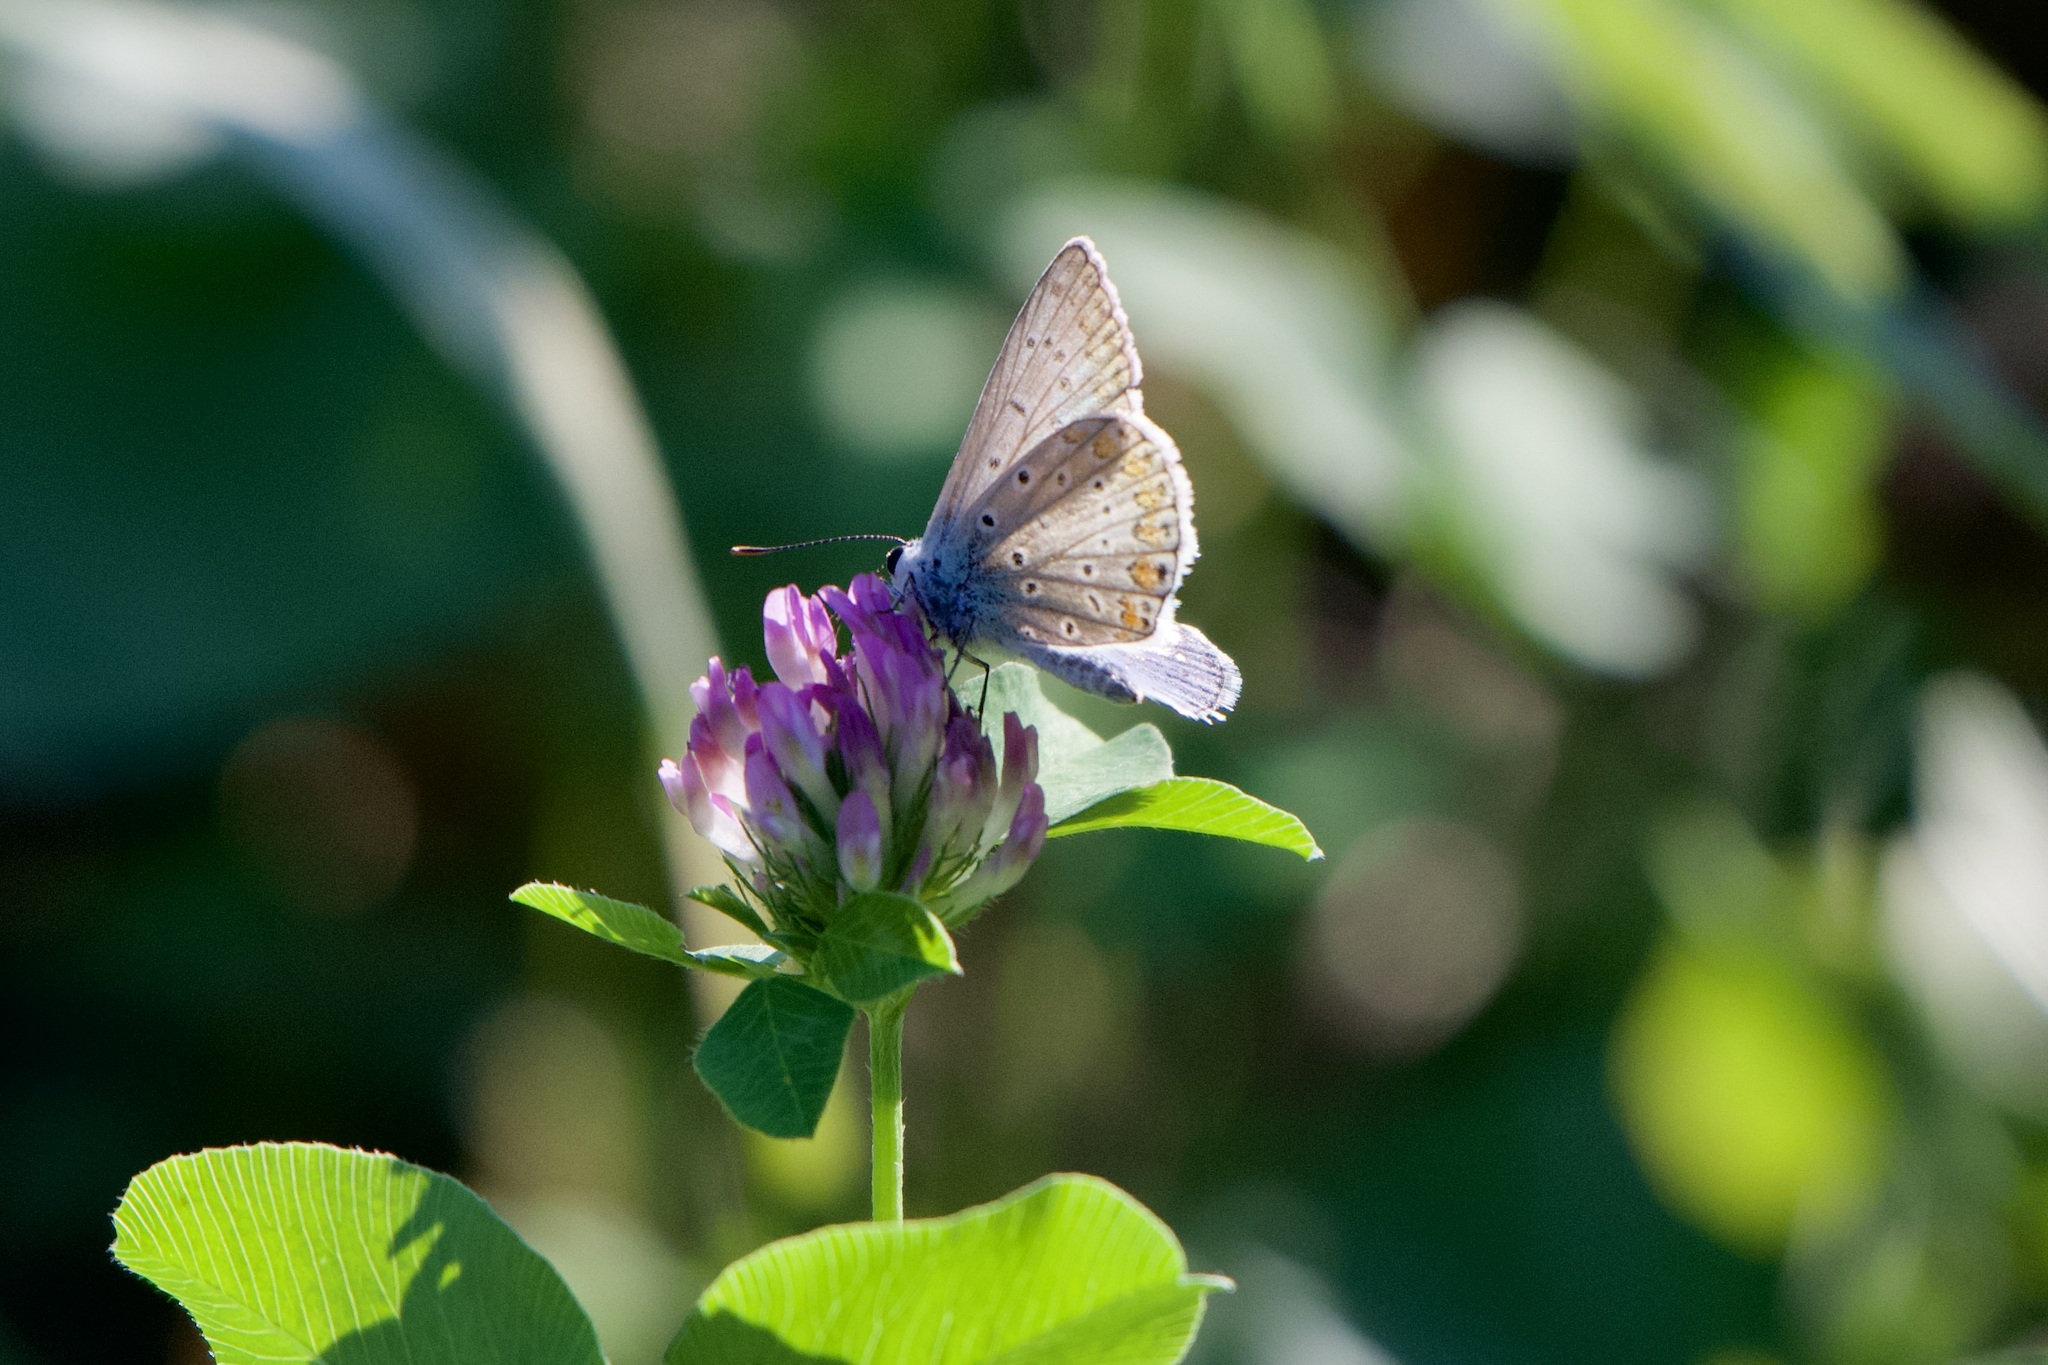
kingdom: Animalia
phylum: Arthropoda
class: Insecta
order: Lepidoptera
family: Lycaenidae
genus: Polyommatus
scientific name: Polyommatus icarus
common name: Common blue
